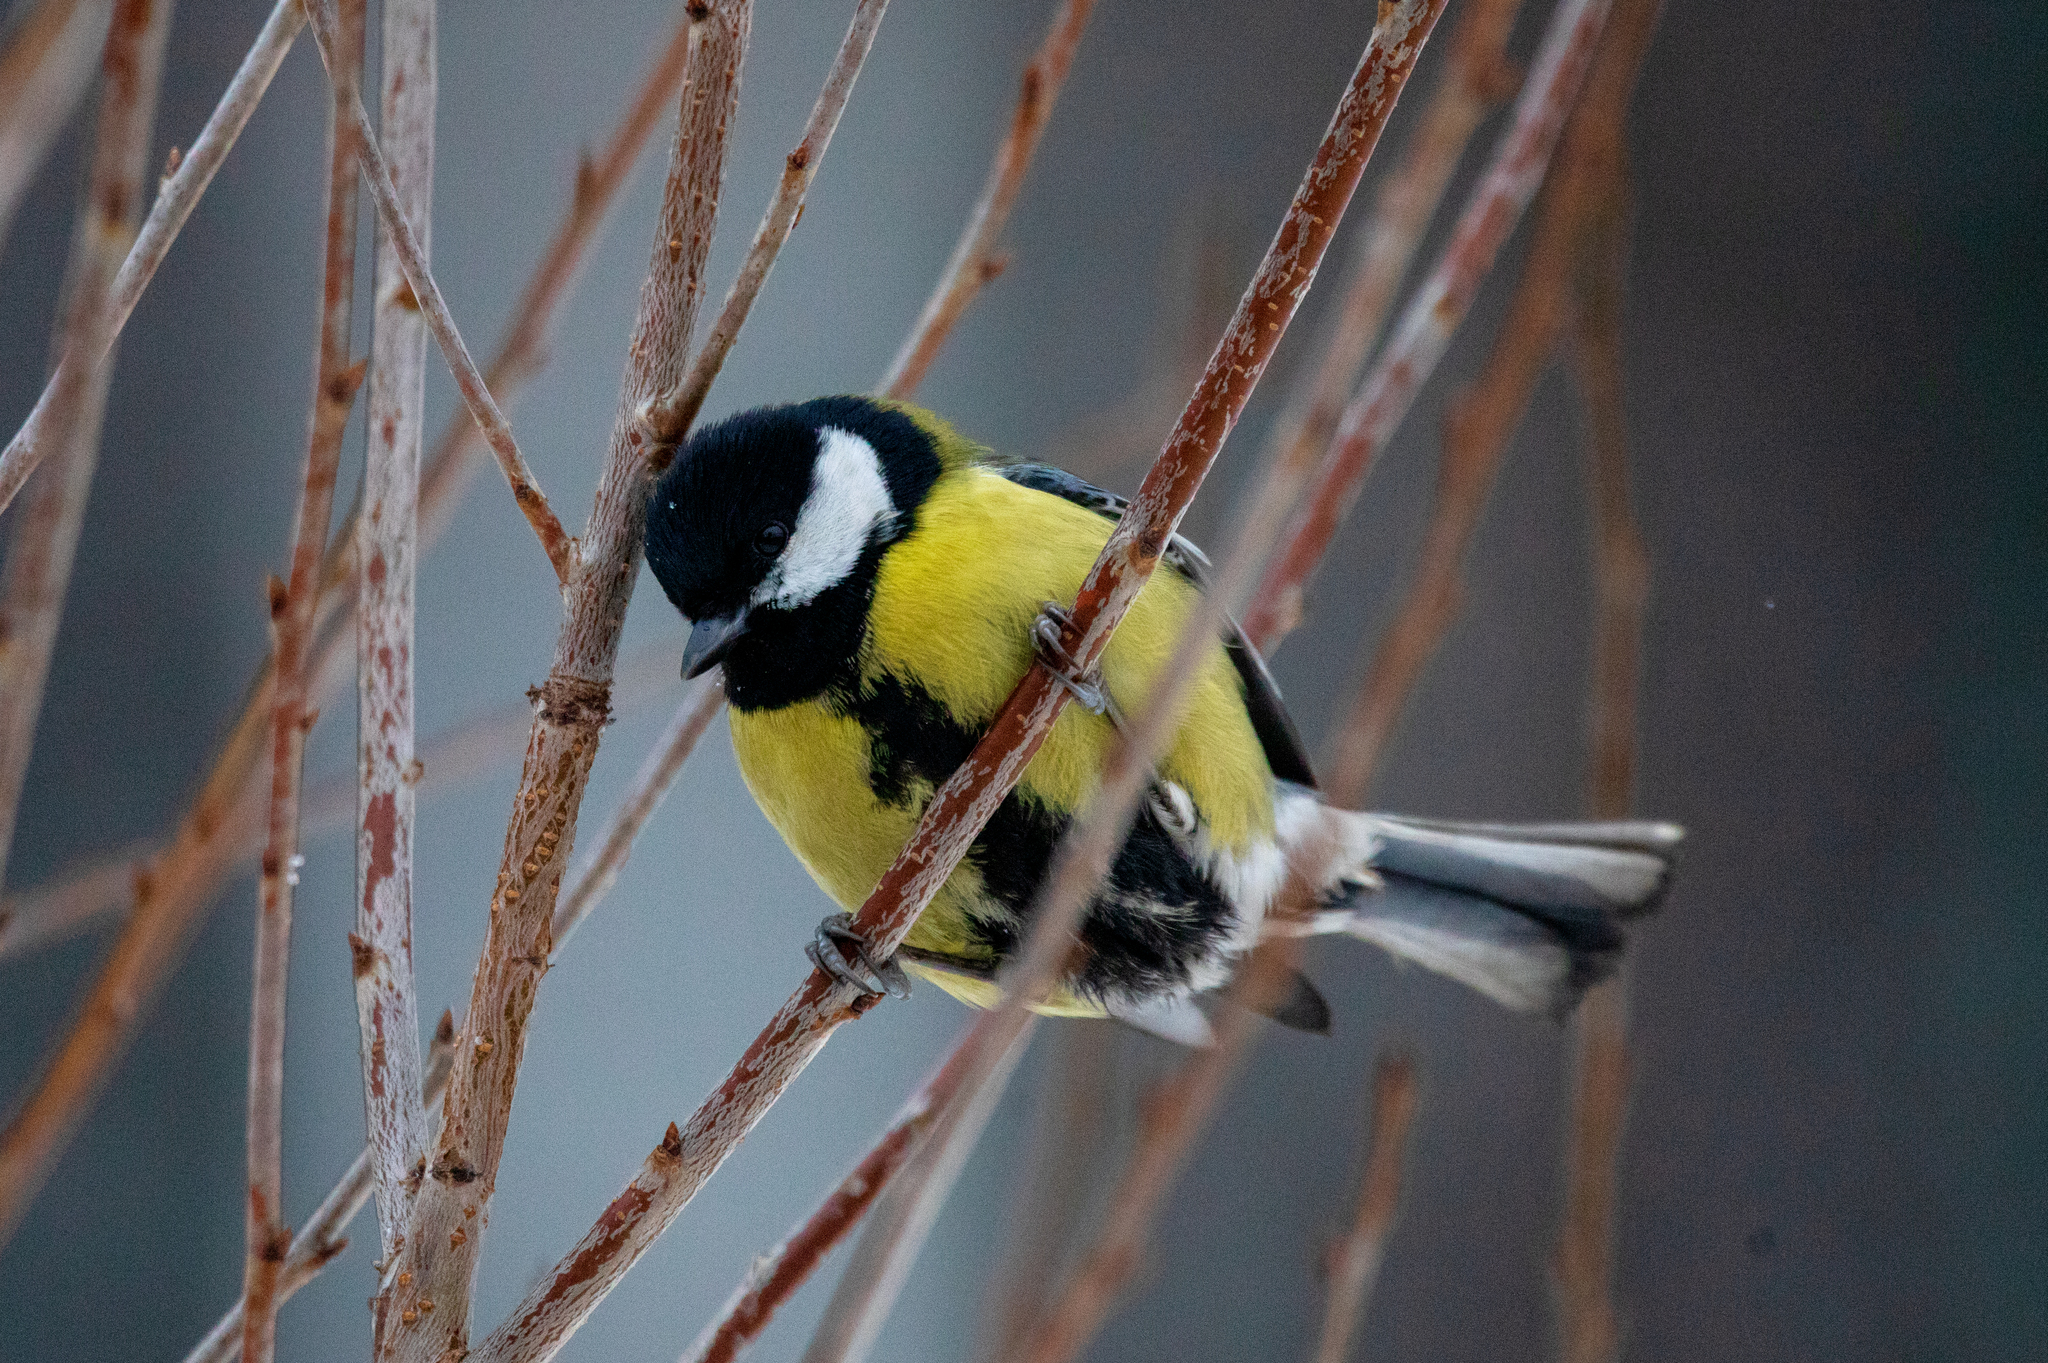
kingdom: Animalia
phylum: Chordata
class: Aves
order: Passeriformes
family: Paridae
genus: Parus
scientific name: Parus major
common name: Great tit
